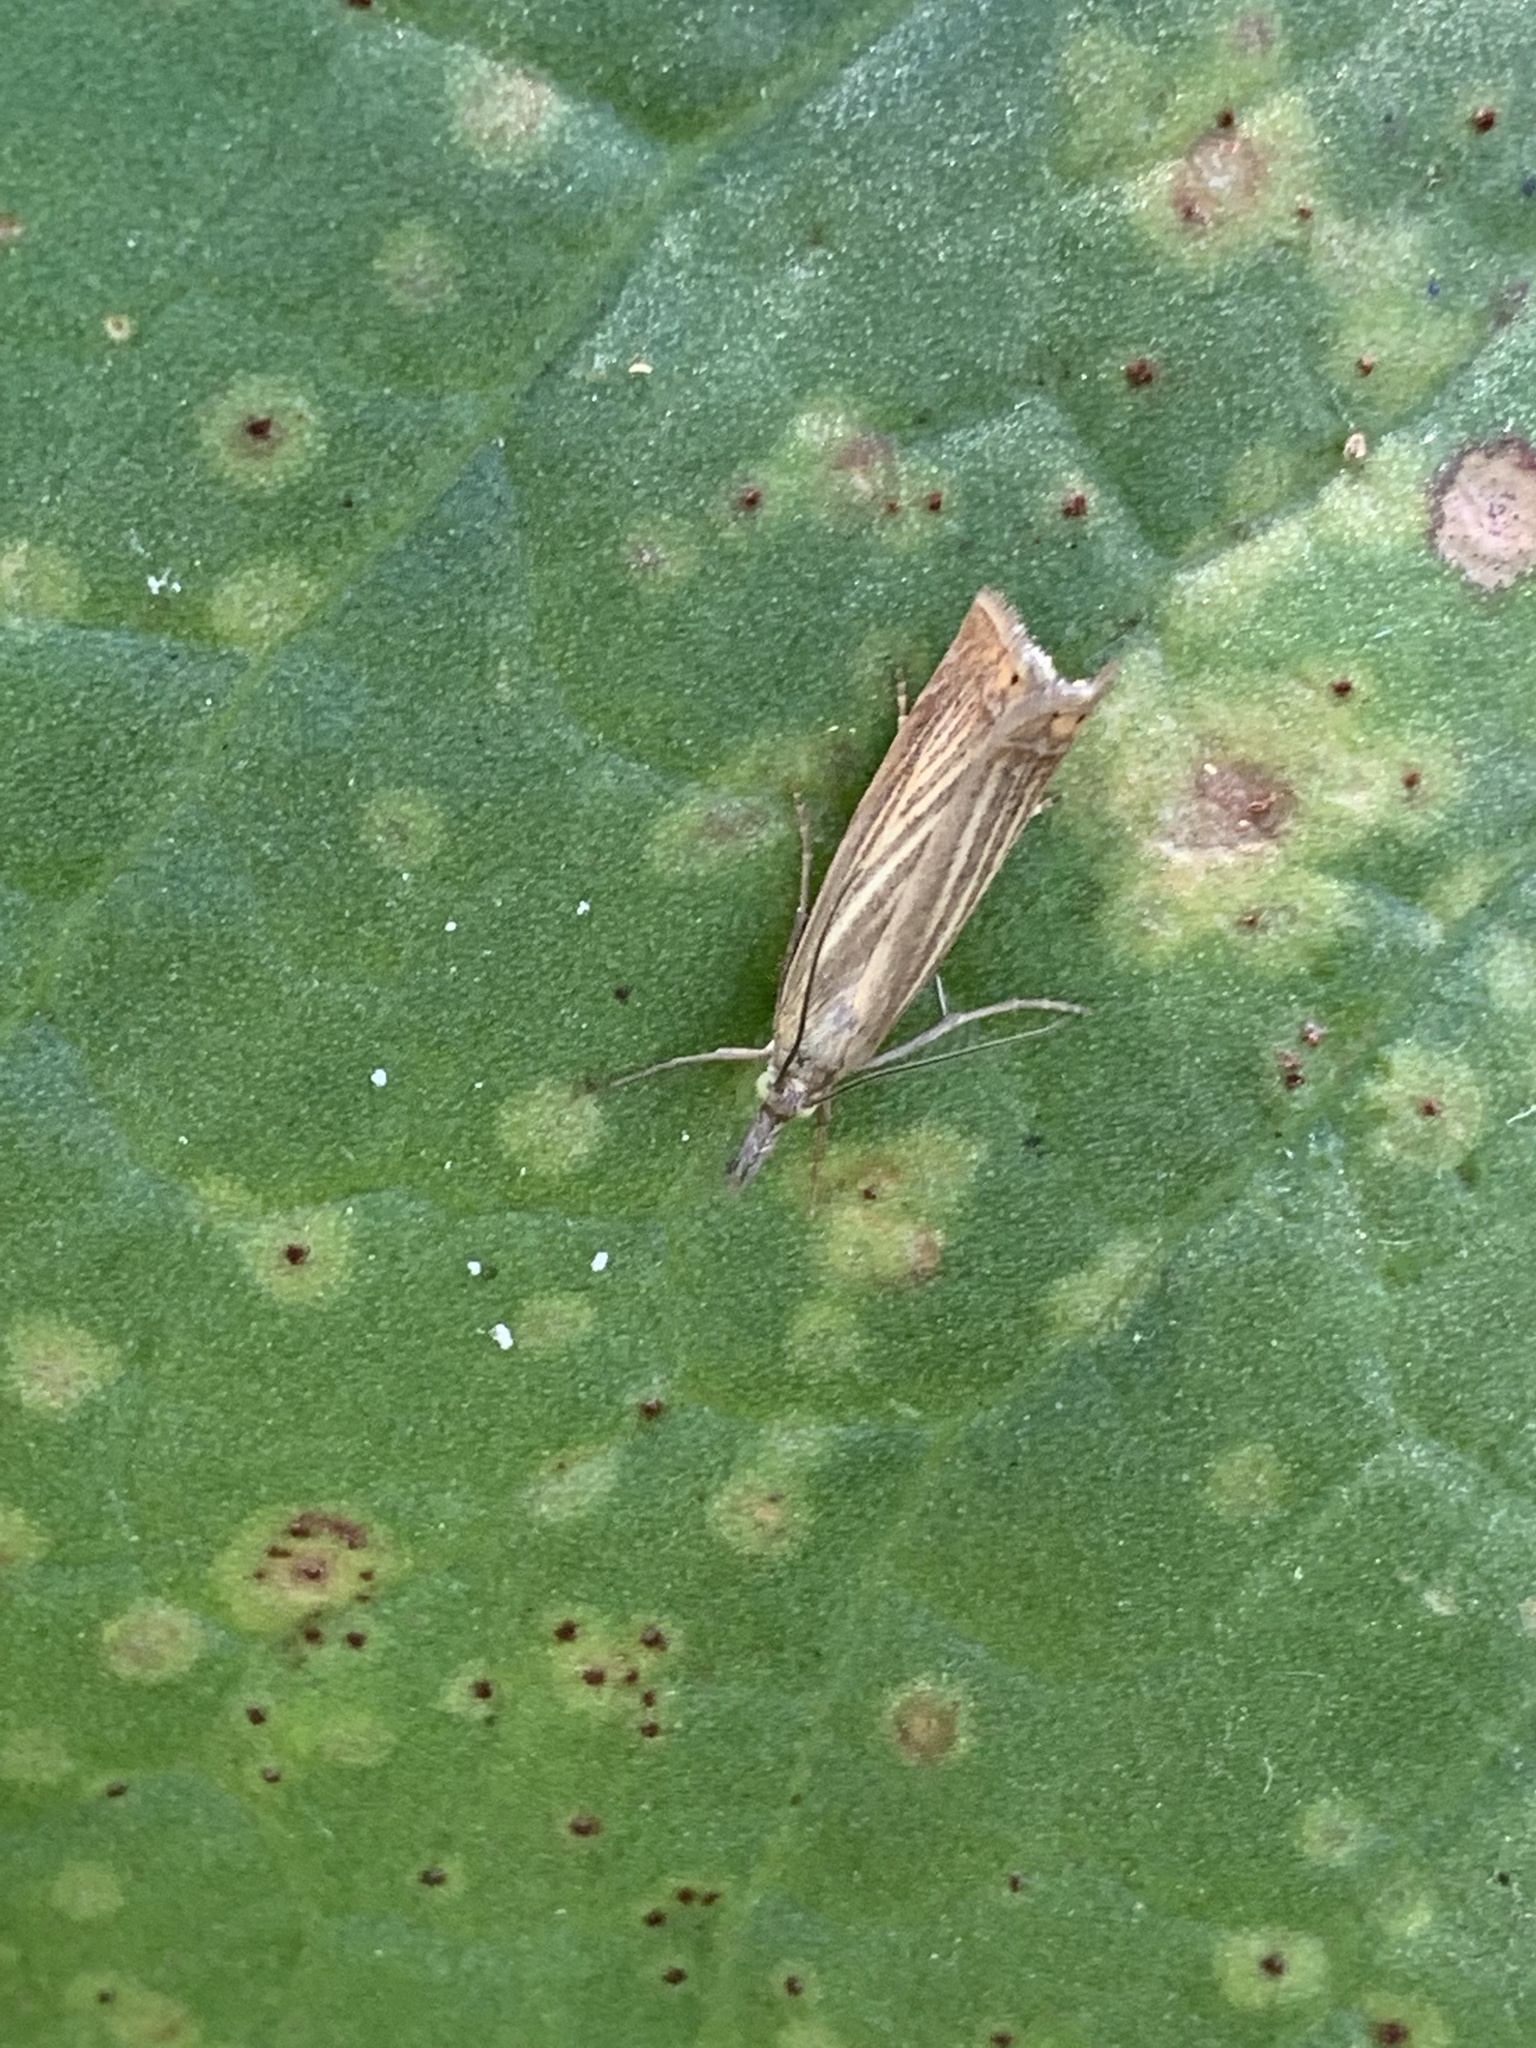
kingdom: Animalia
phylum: Arthropoda
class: Insecta
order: Lepidoptera
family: Crambidae
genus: Chrysoteuchia
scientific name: Chrysoteuchia culmella
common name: Garden grass-veneer
